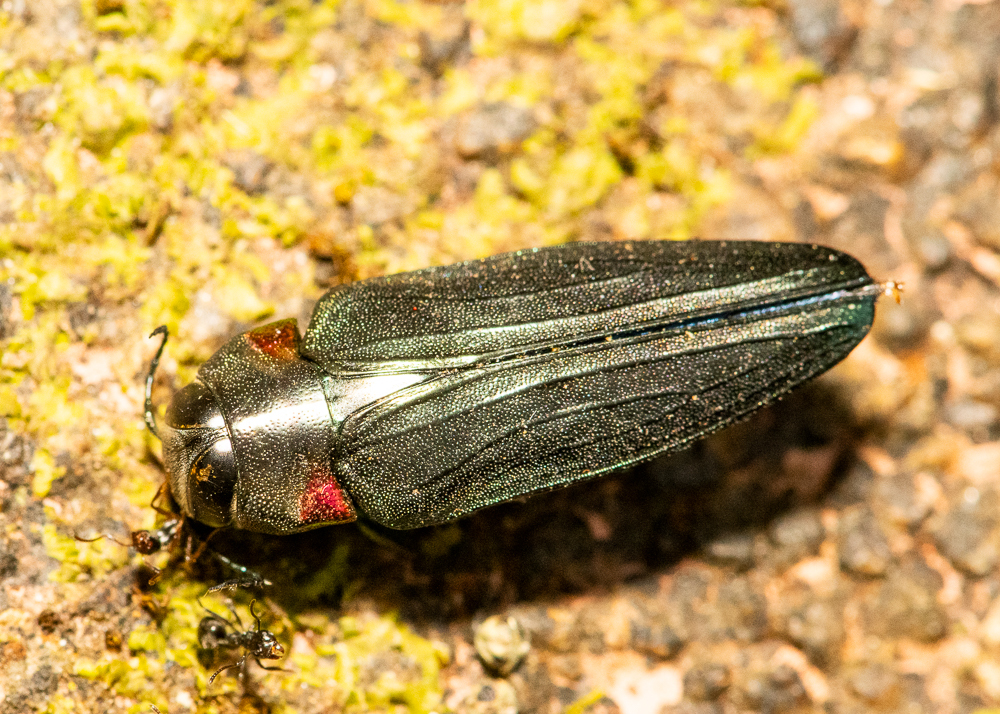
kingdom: Animalia
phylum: Arthropoda
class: Insecta
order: Coleoptera
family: Buprestidae
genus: Belionota
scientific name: Belionota prasina
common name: Jewel beetle
